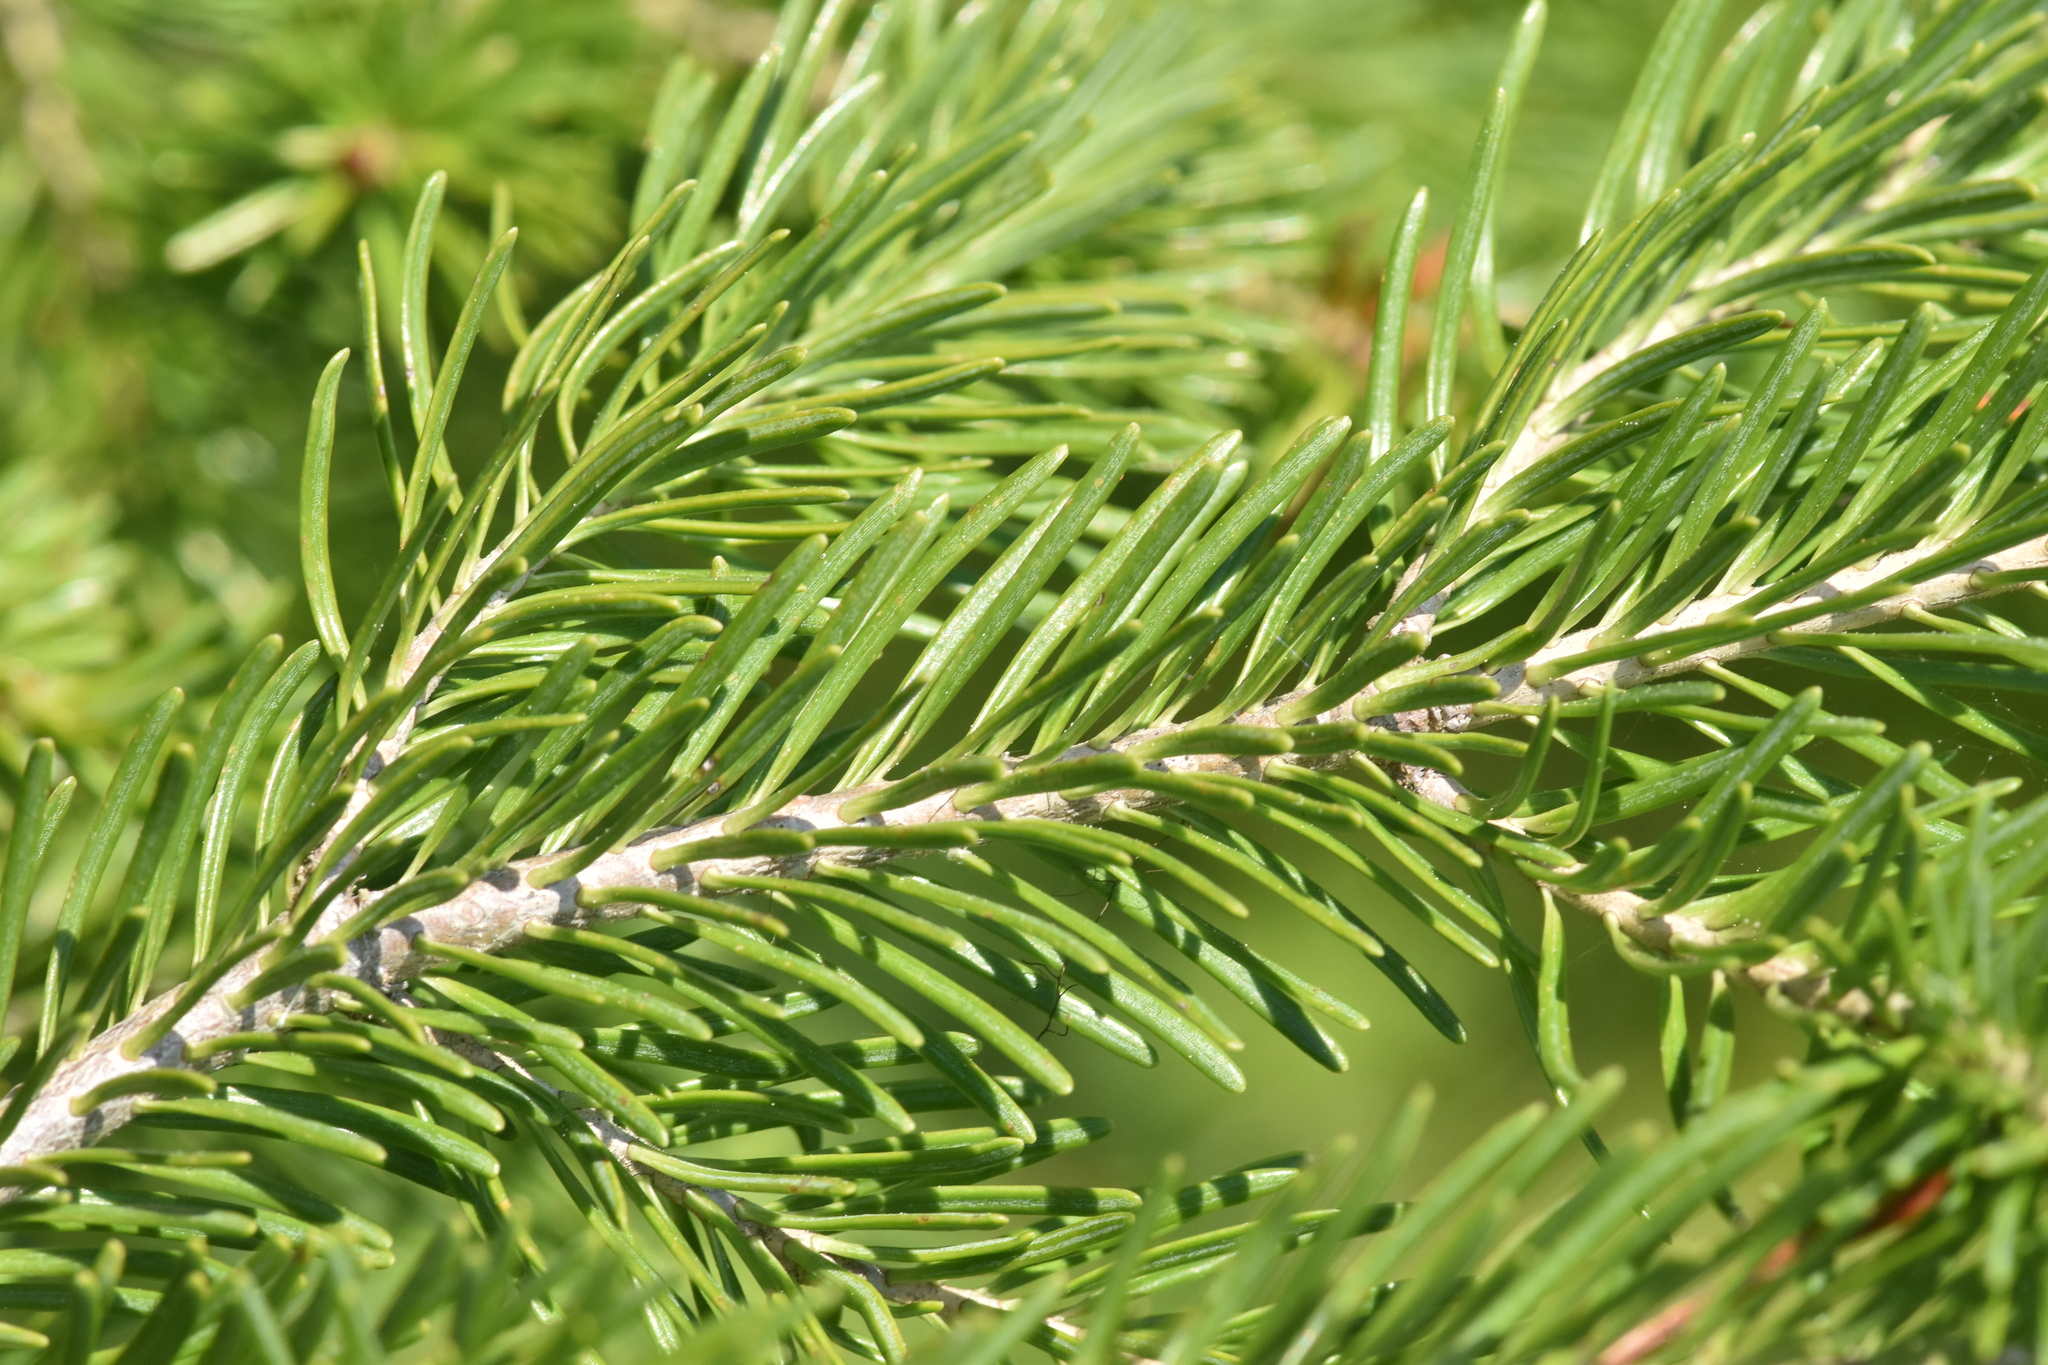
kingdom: Plantae
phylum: Tracheophyta
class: Pinopsida
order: Pinales
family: Pinaceae
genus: Abies
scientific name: Abies lasiocarpa
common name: Subalpine fir
